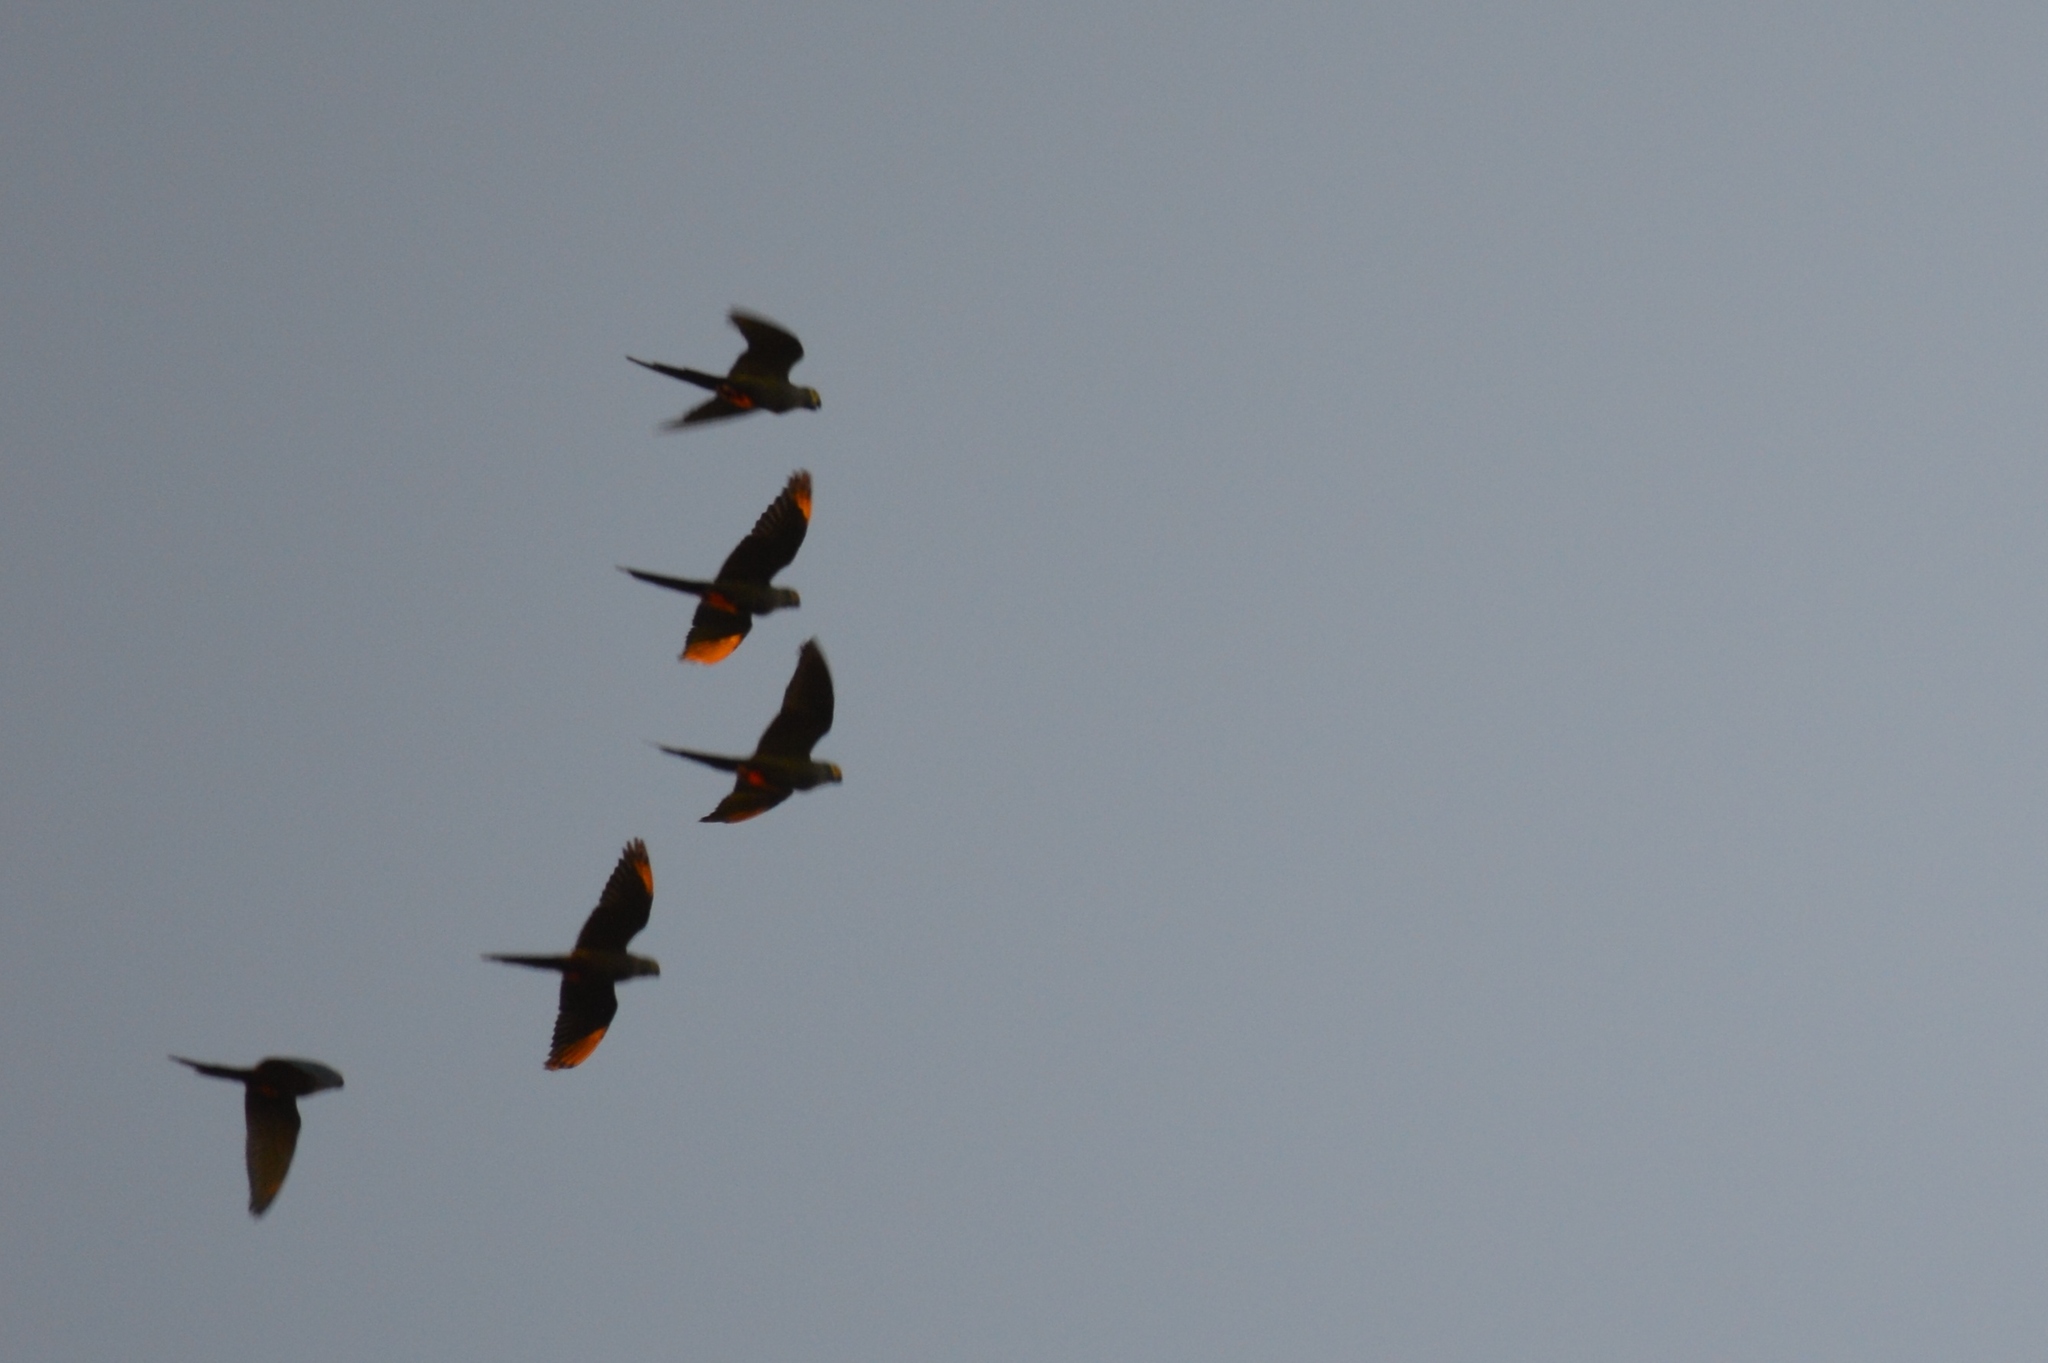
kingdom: Animalia
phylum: Chordata
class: Aves
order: Psittaciformes
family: Psittacidae
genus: Orthopsittaca
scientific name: Orthopsittaca manilata
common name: Red-bellied macaw
